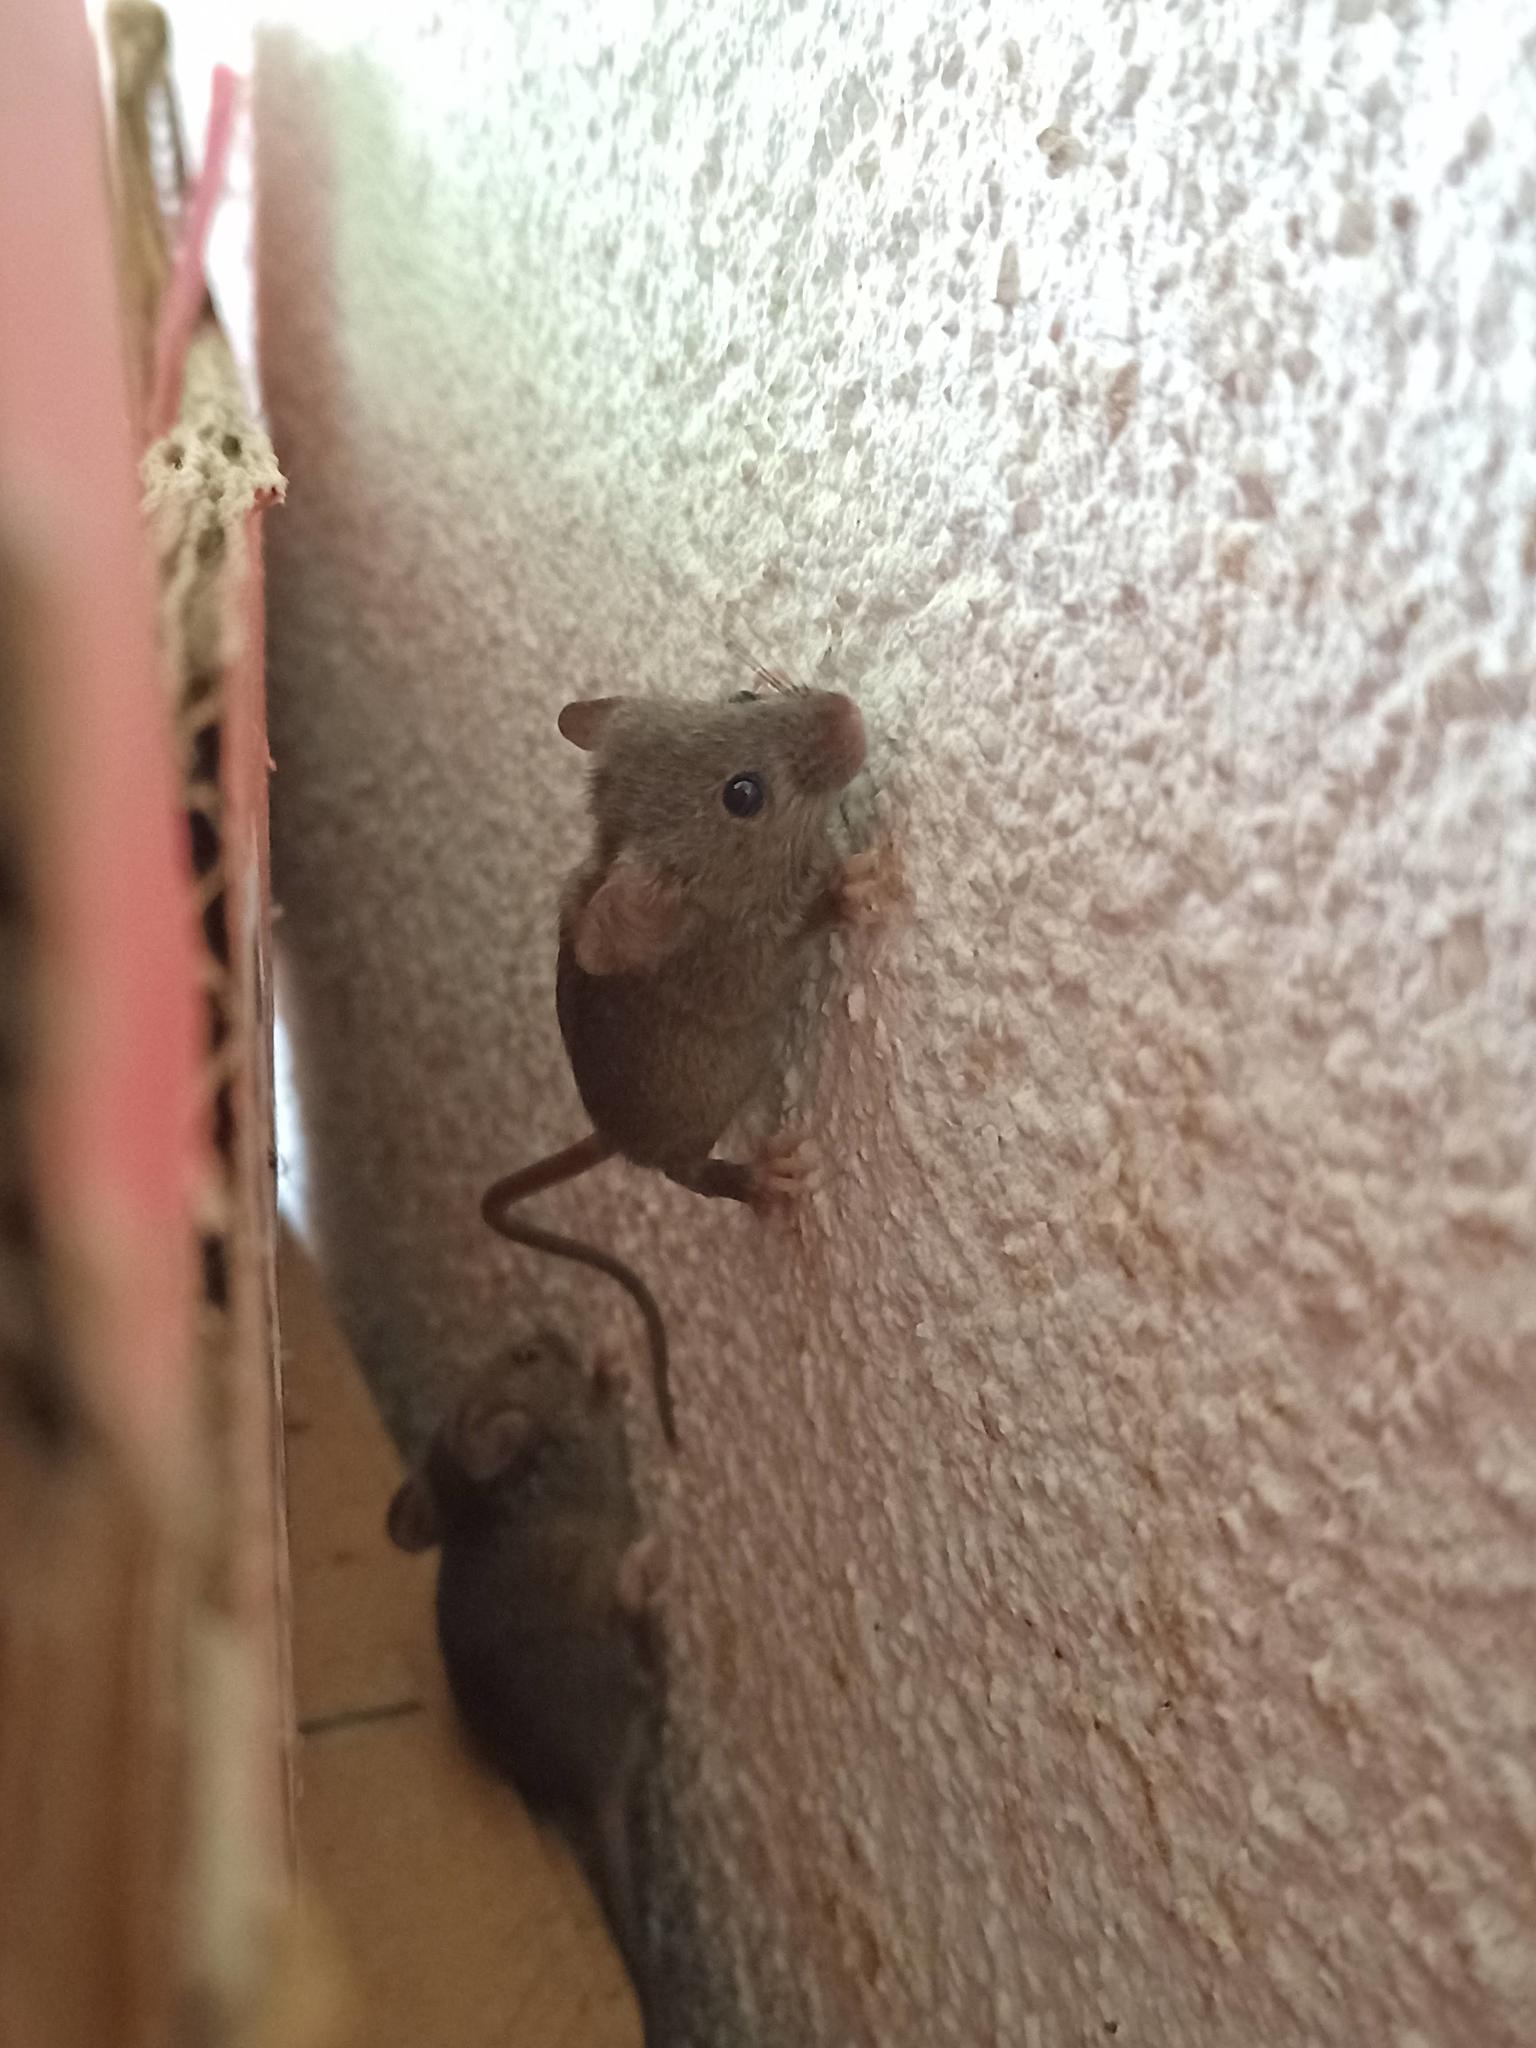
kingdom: Animalia
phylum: Chordata
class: Mammalia
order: Rodentia
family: Muridae
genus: Mus
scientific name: Mus musculus
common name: House mouse
